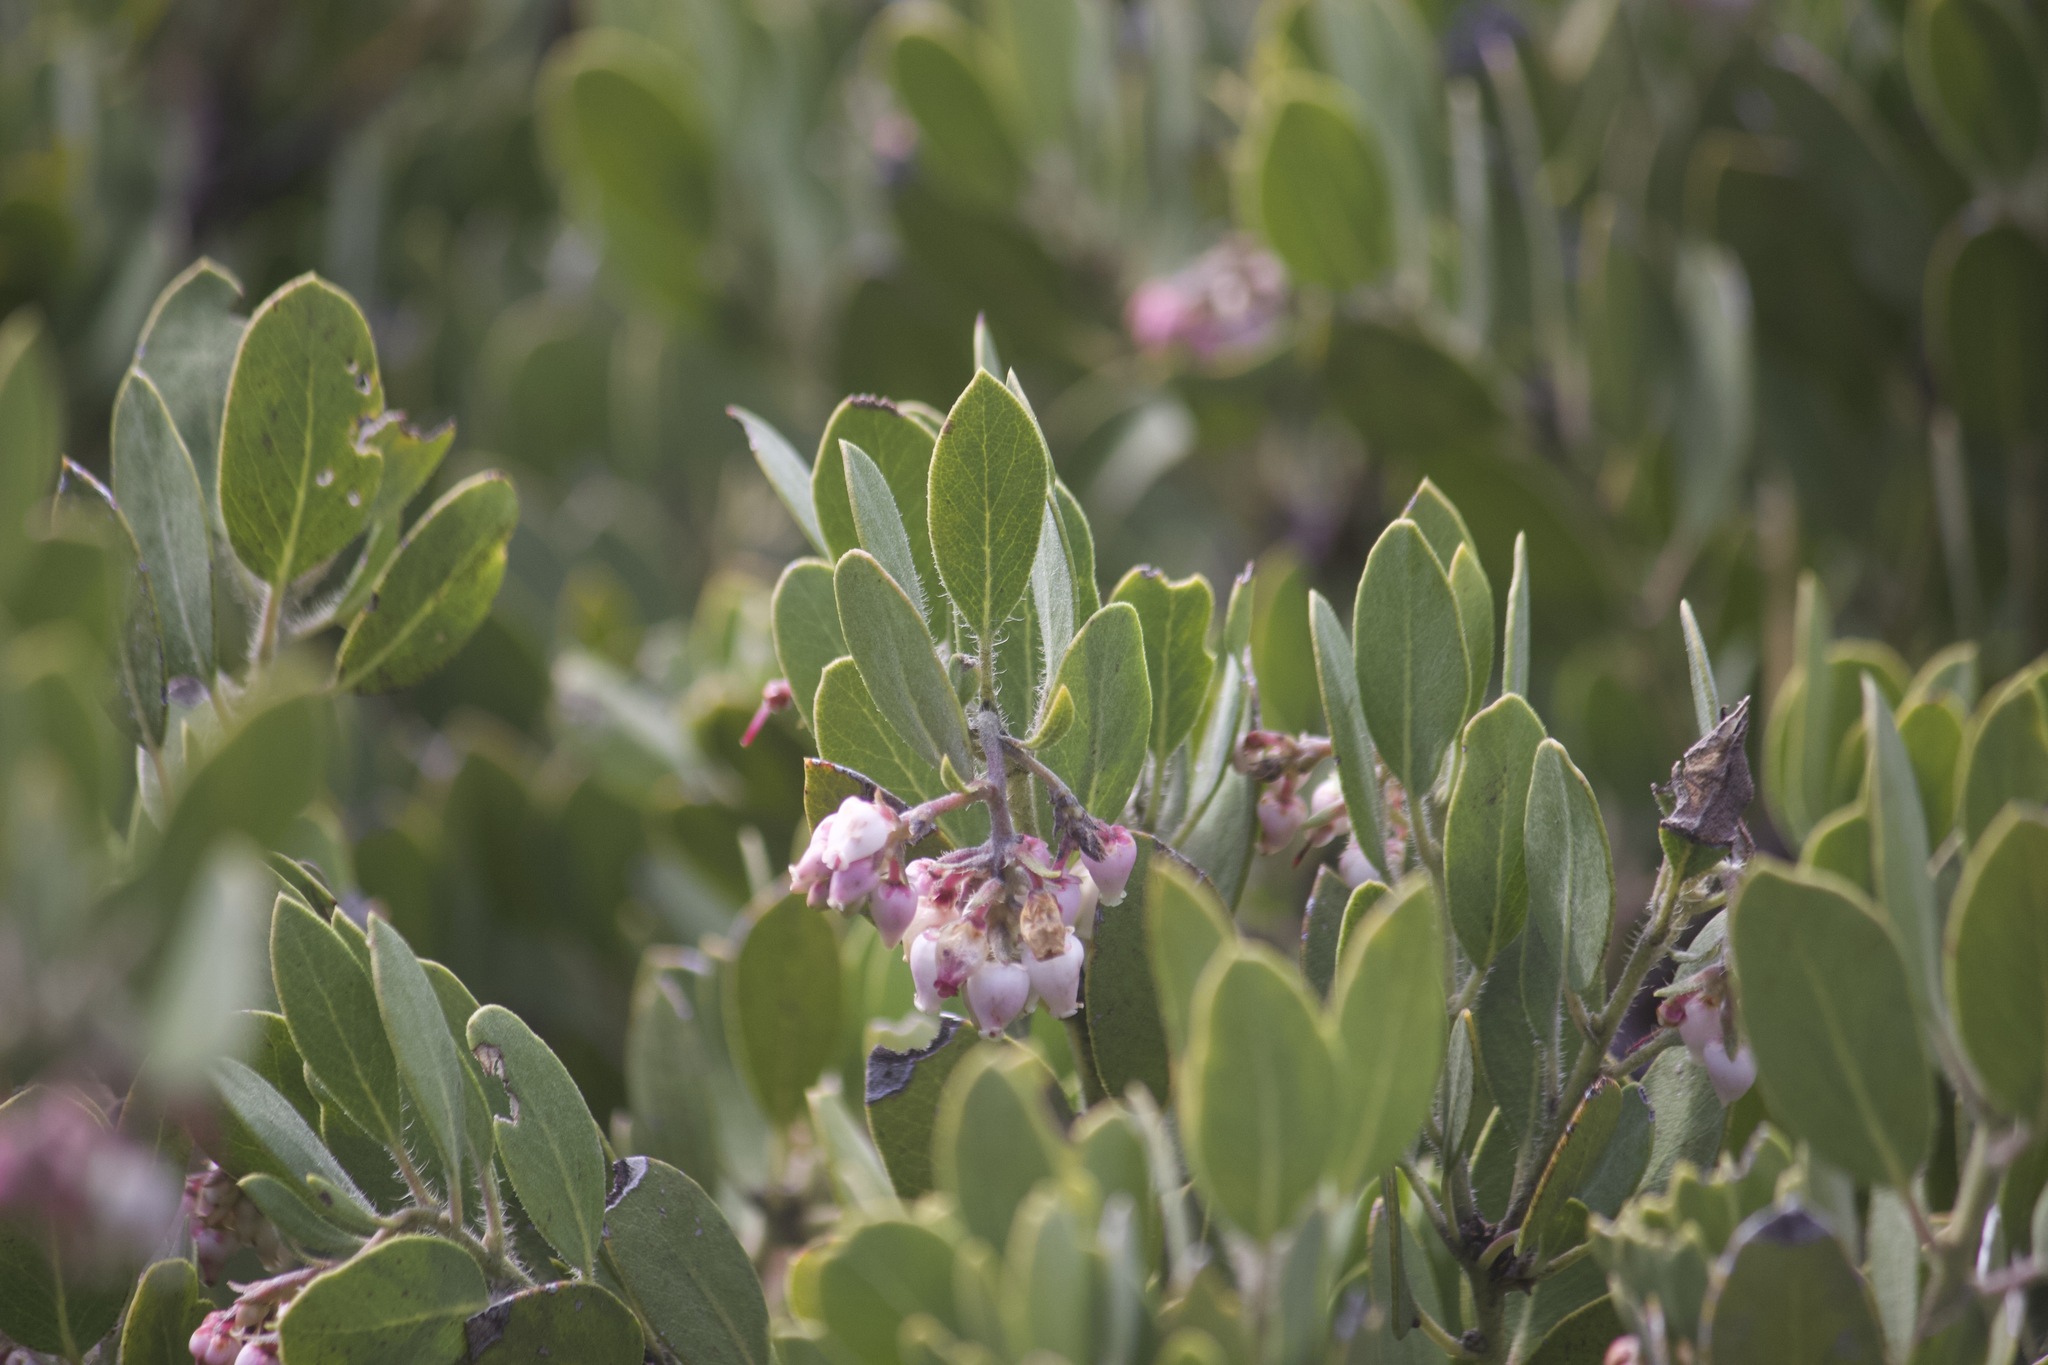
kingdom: Plantae
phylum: Tracheophyta
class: Magnoliopsida
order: Ericales
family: Ericaceae
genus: Arctostaphylos
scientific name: Arctostaphylos glandulosa
